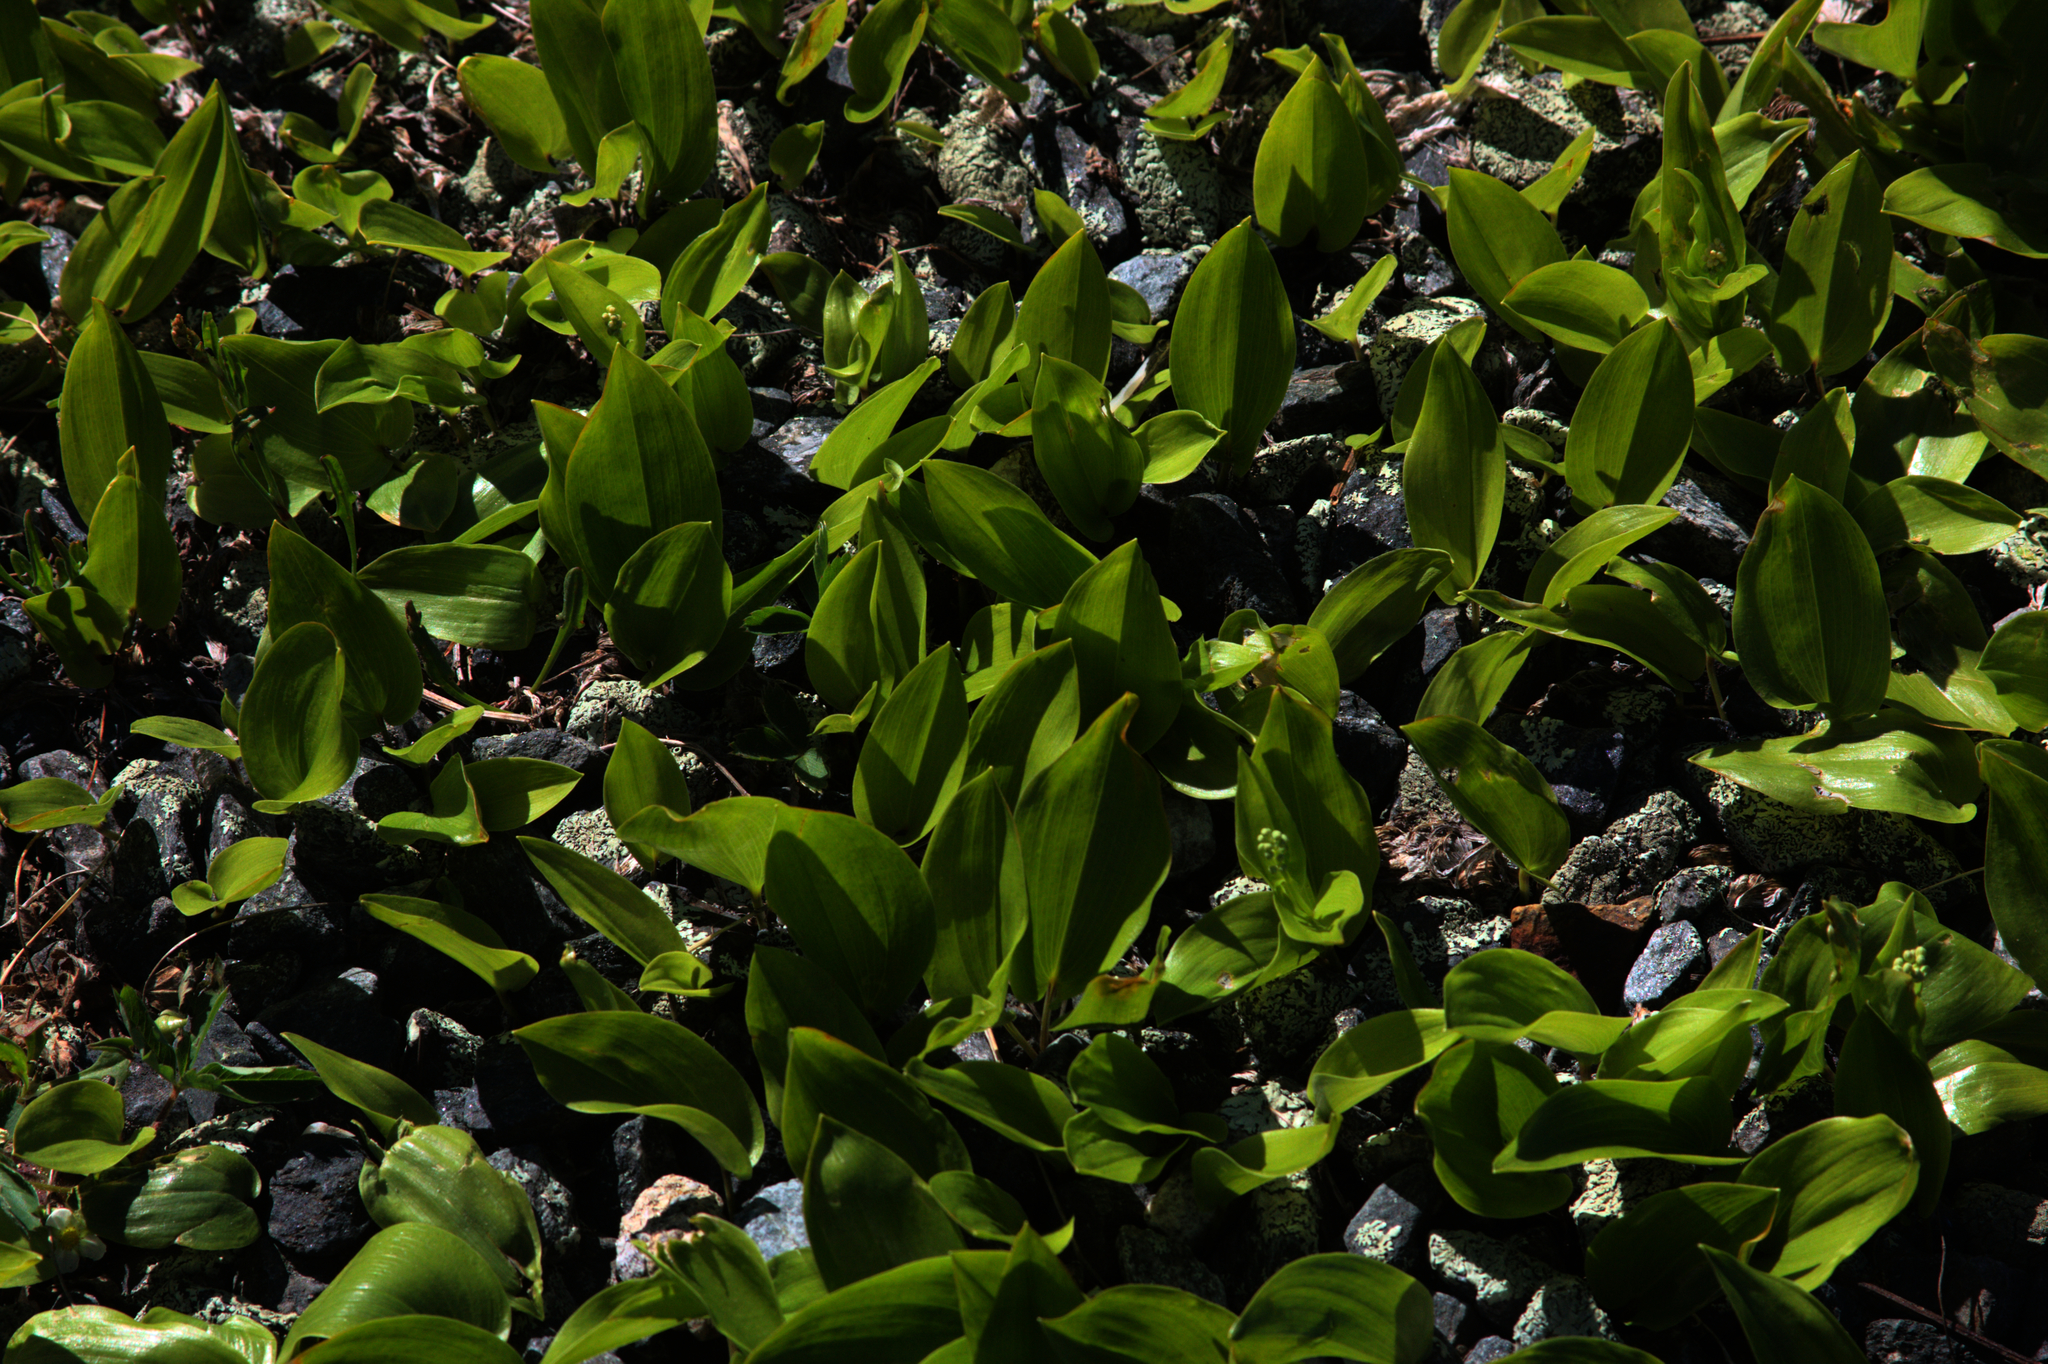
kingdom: Plantae
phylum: Tracheophyta
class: Liliopsida
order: Asparagales
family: Asparagaceae
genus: Maianthemum
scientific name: Maianthemum canadense
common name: False lily-of-the-valley
